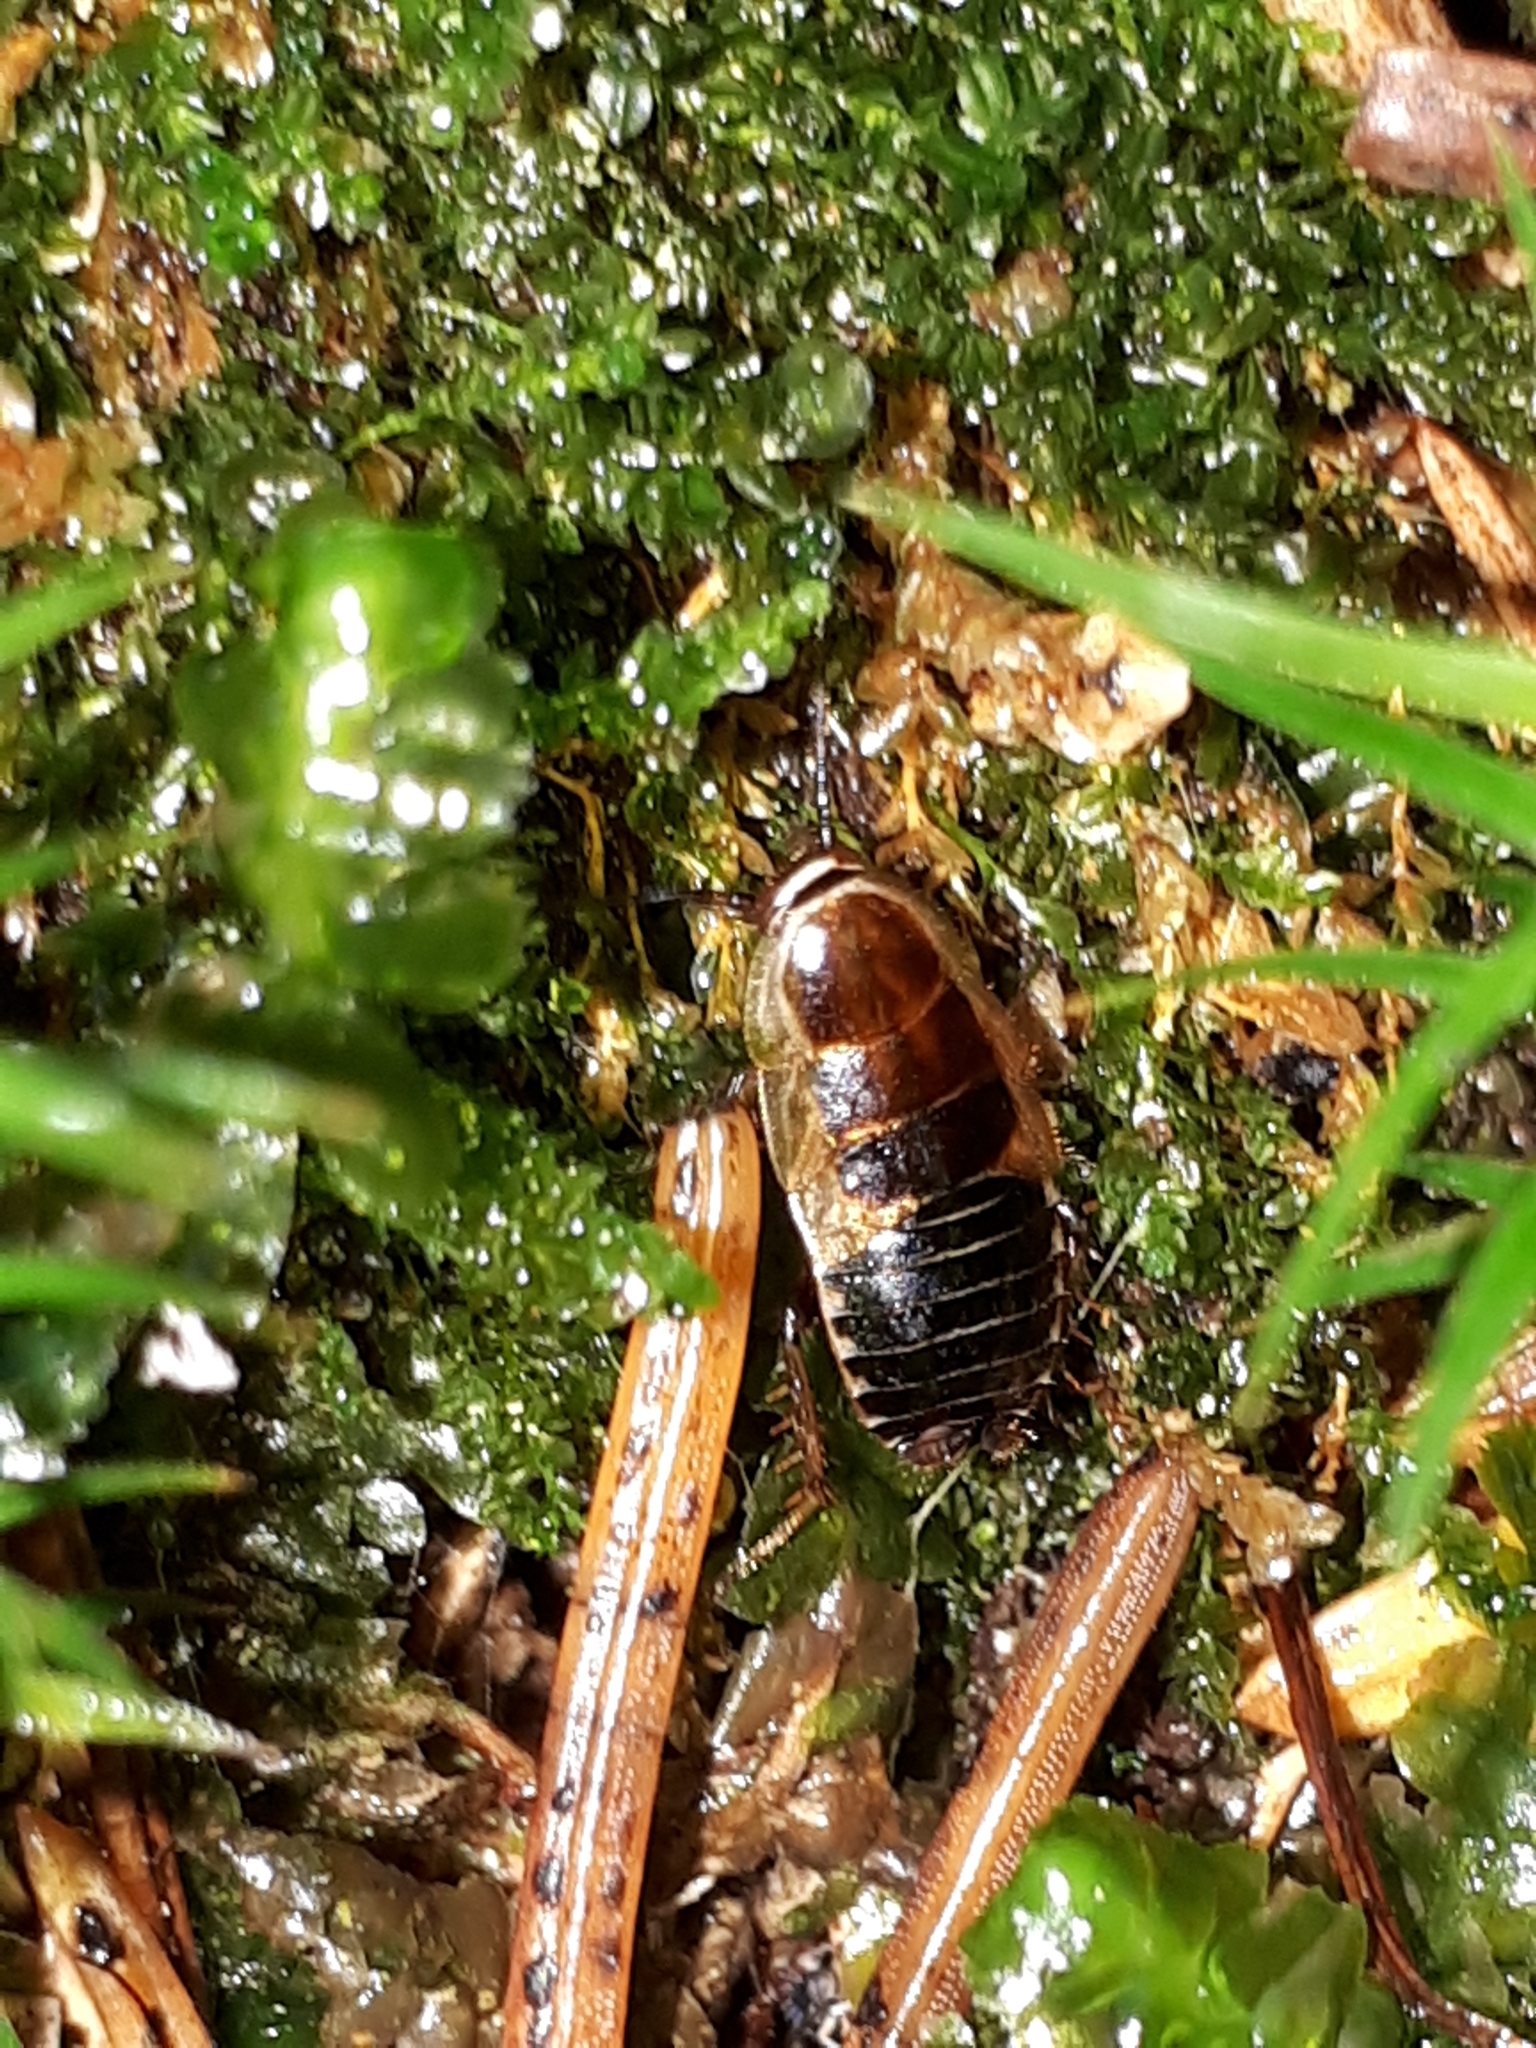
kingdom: Animalia
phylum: Arthropoda
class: Insecta
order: Blattodea
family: Ectobiidae
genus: Ectobius
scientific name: Ectobius sylvestris
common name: Forest cockroach
